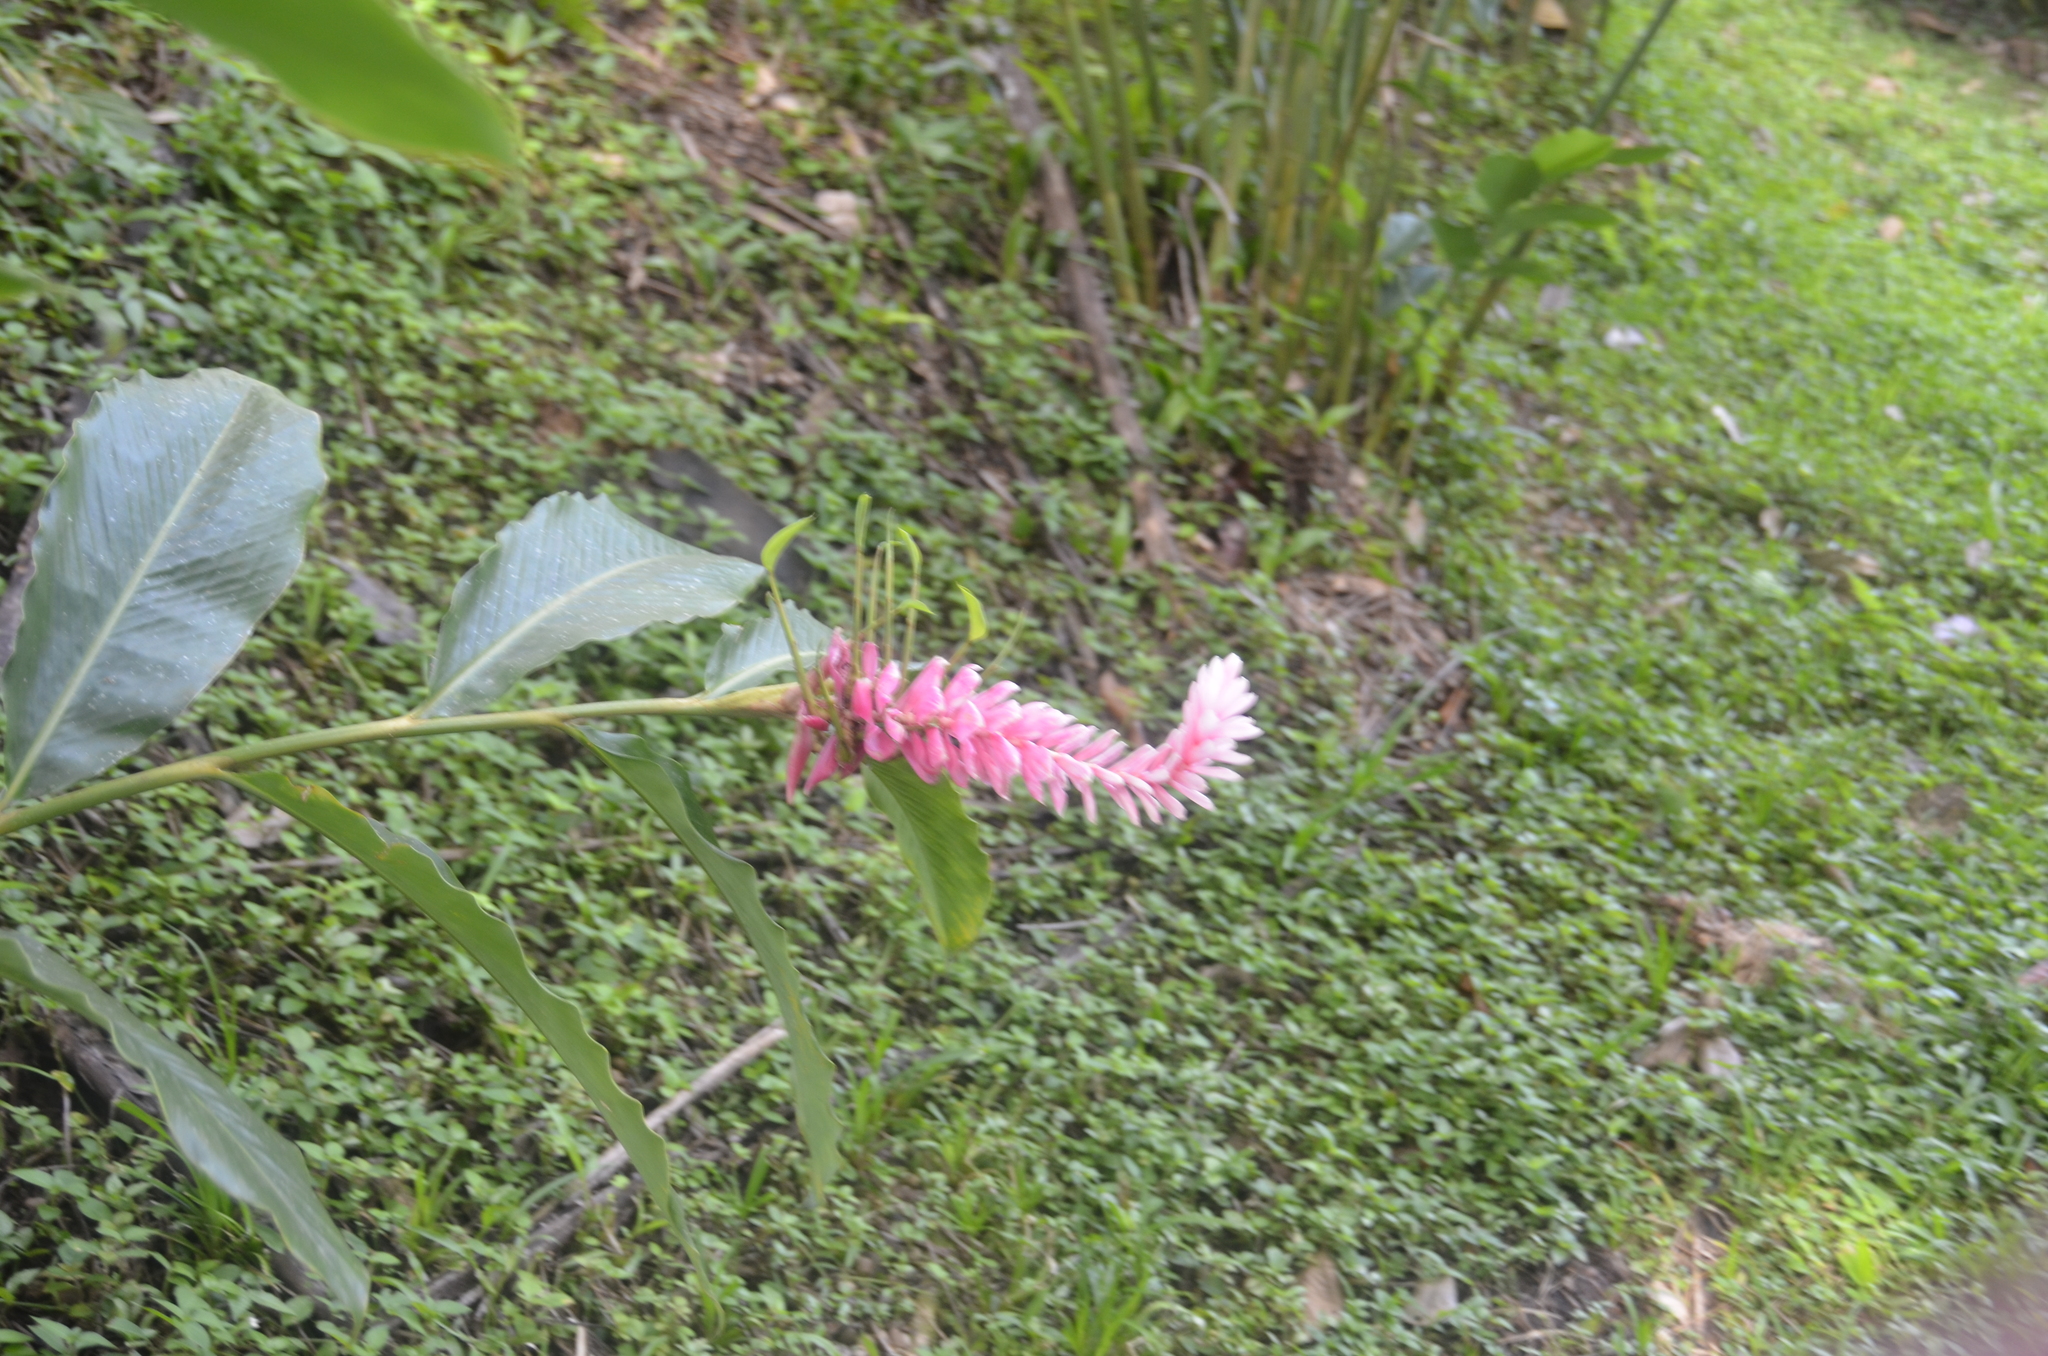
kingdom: Plantae
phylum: Tracheophyta
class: Liliopsida
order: Zingiberales
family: Zingiberaceae
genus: Alpinia
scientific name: Alpinia purpurata
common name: Red ginger
